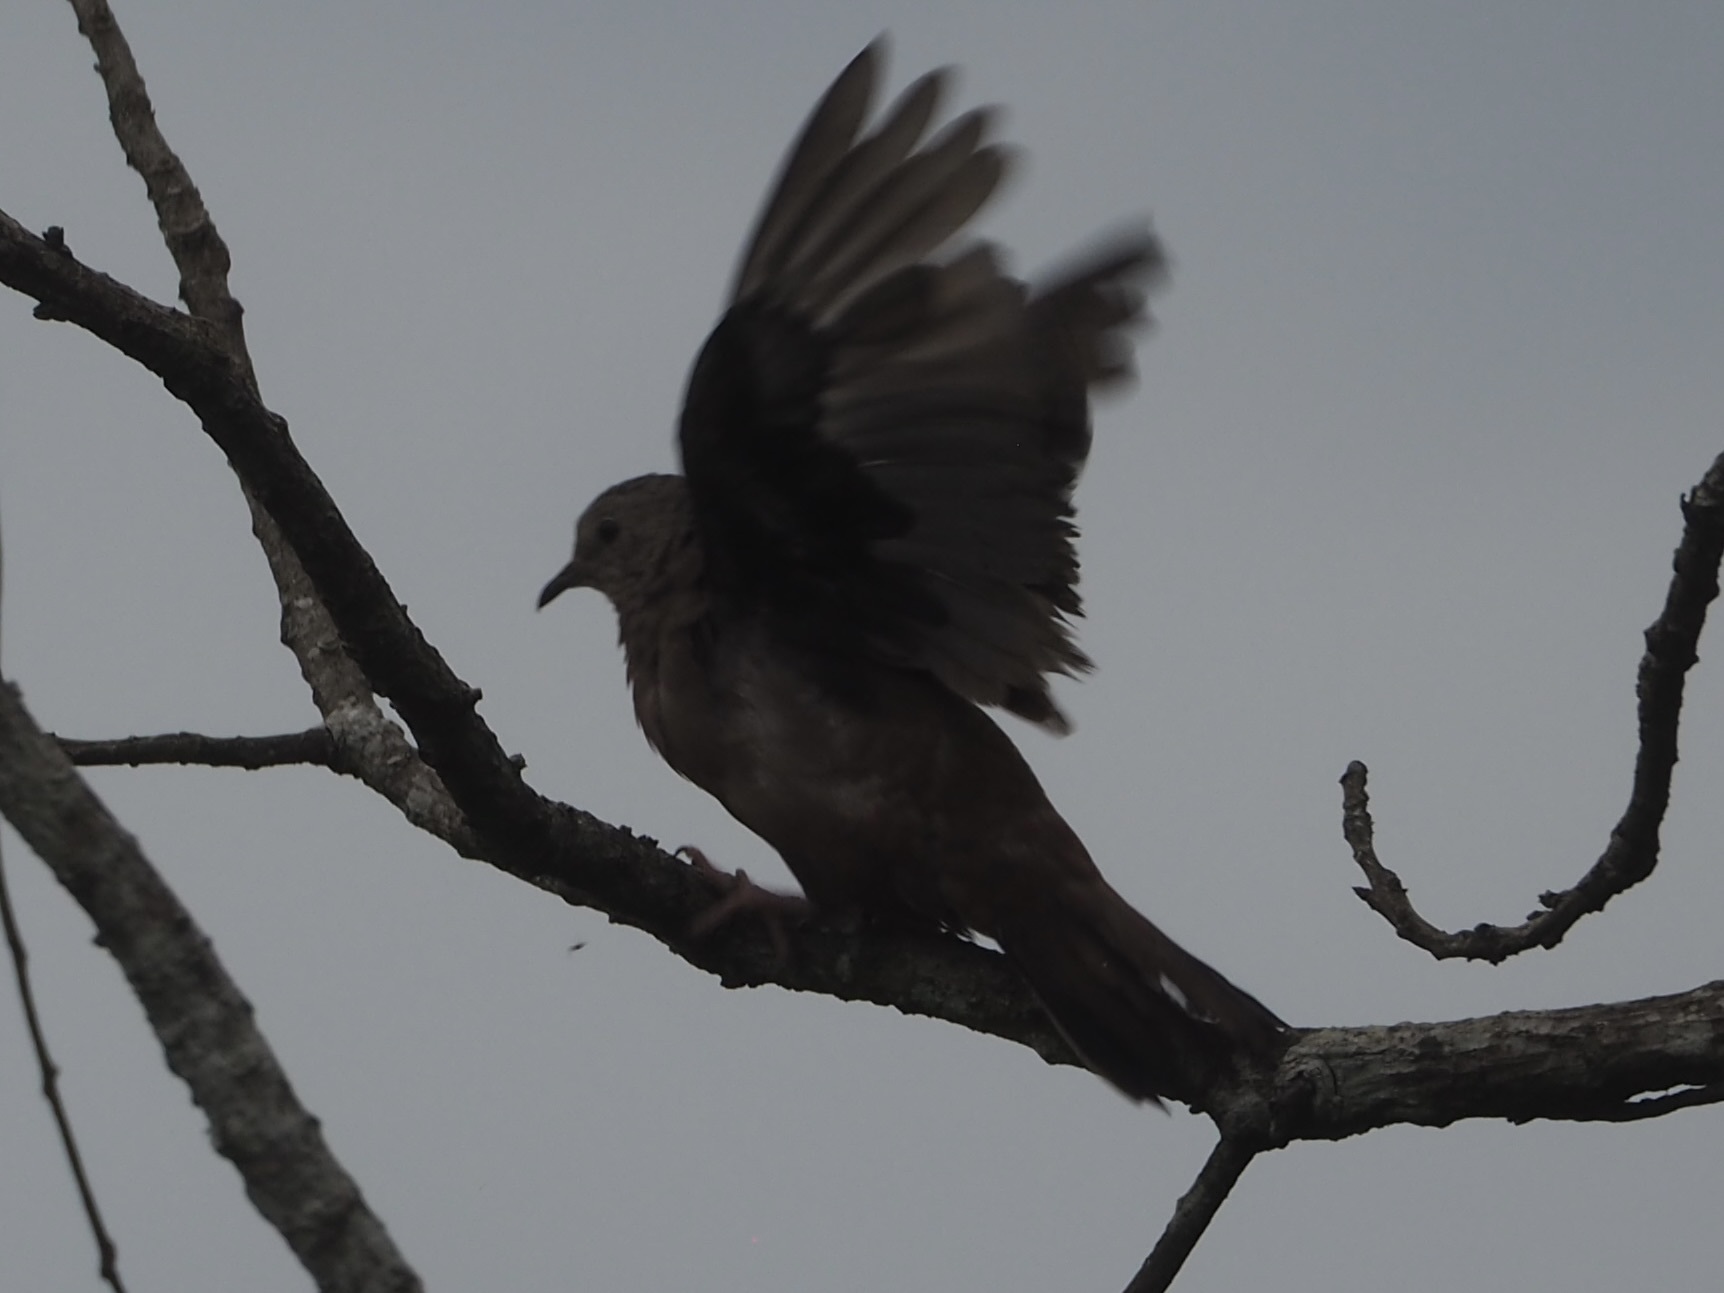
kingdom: Animalia
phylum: Chordata
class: Aves
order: Columbiformes
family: Columbidae
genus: Columbina
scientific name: Columbina talpacoti
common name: Ruddy ground dove
